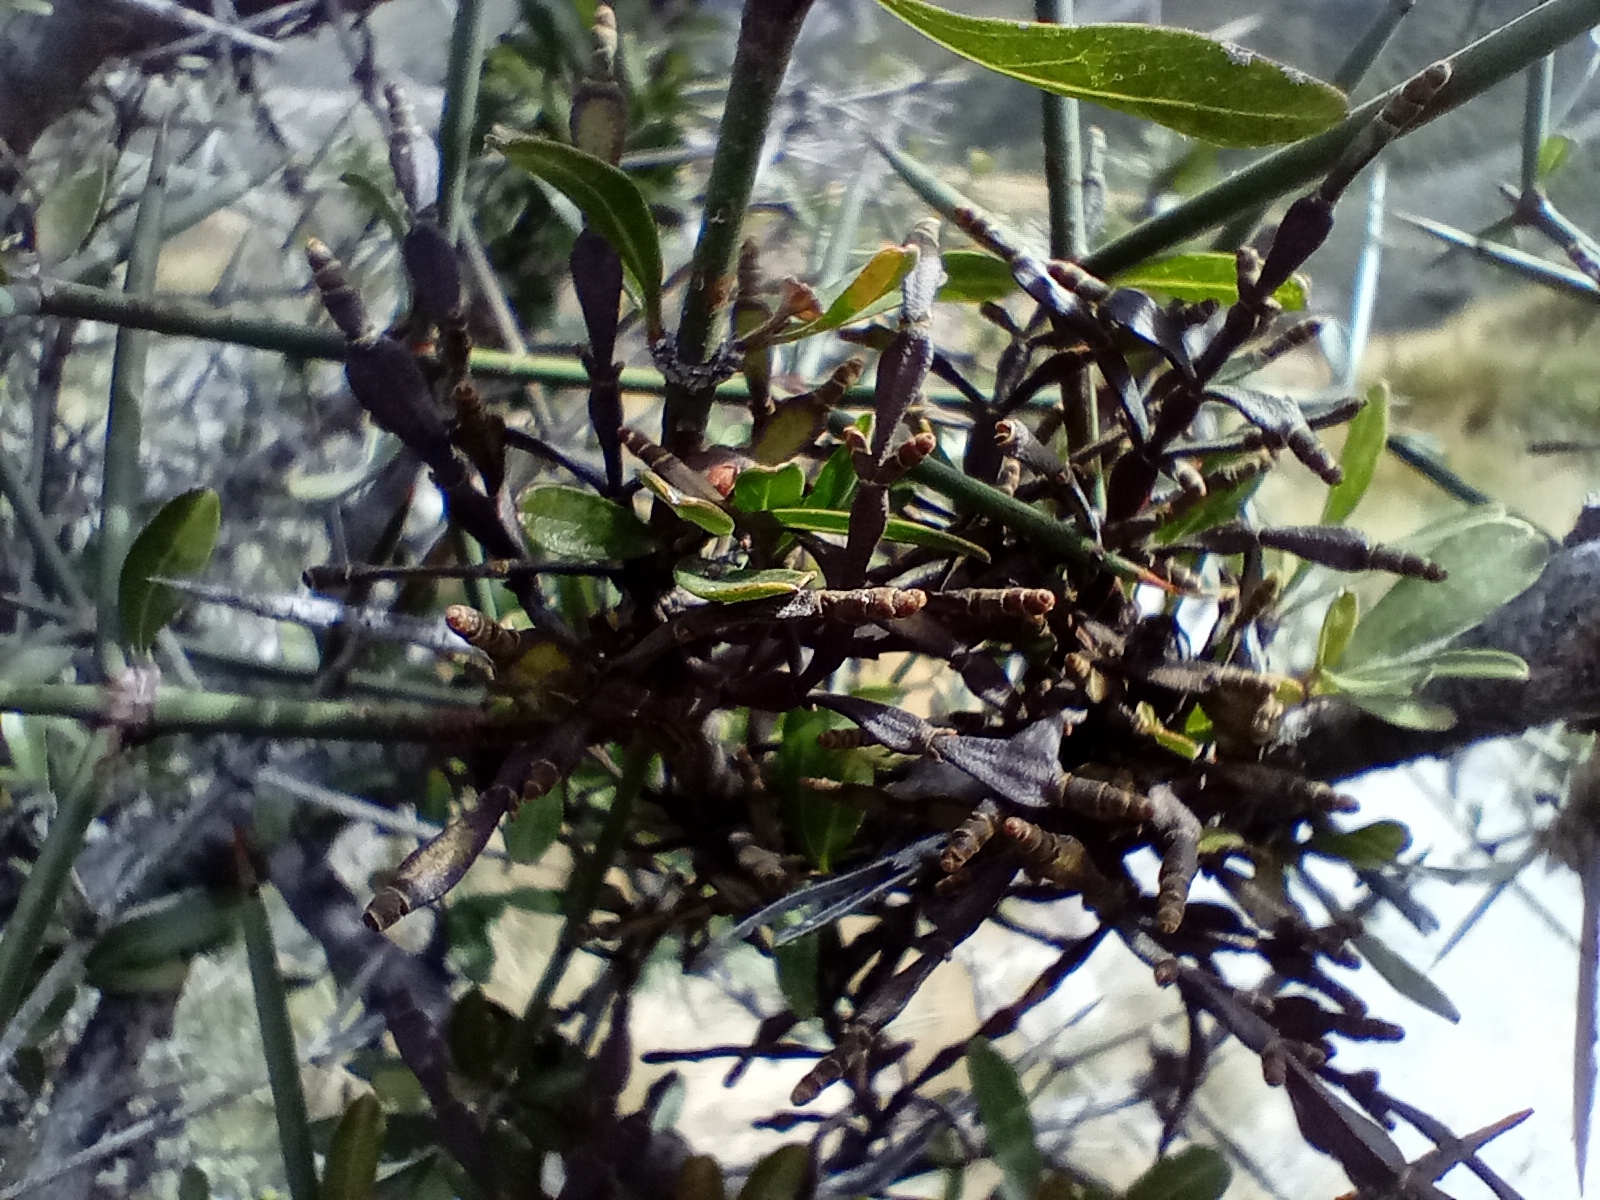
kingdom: Plantae
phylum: Tracheophyta
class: Magnoliopsida
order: Santalales
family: Viscaceae
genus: Korthalsella
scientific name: Korthalsella clavata
